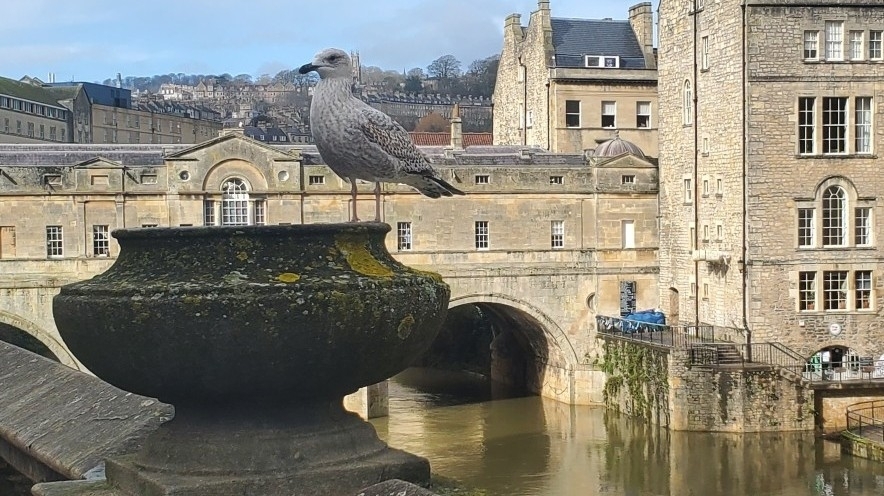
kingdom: Animalia
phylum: Chordata
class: Aves
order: Charadriiformes
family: Laridae
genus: Larus
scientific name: Larus argentatus
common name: Herring gull
